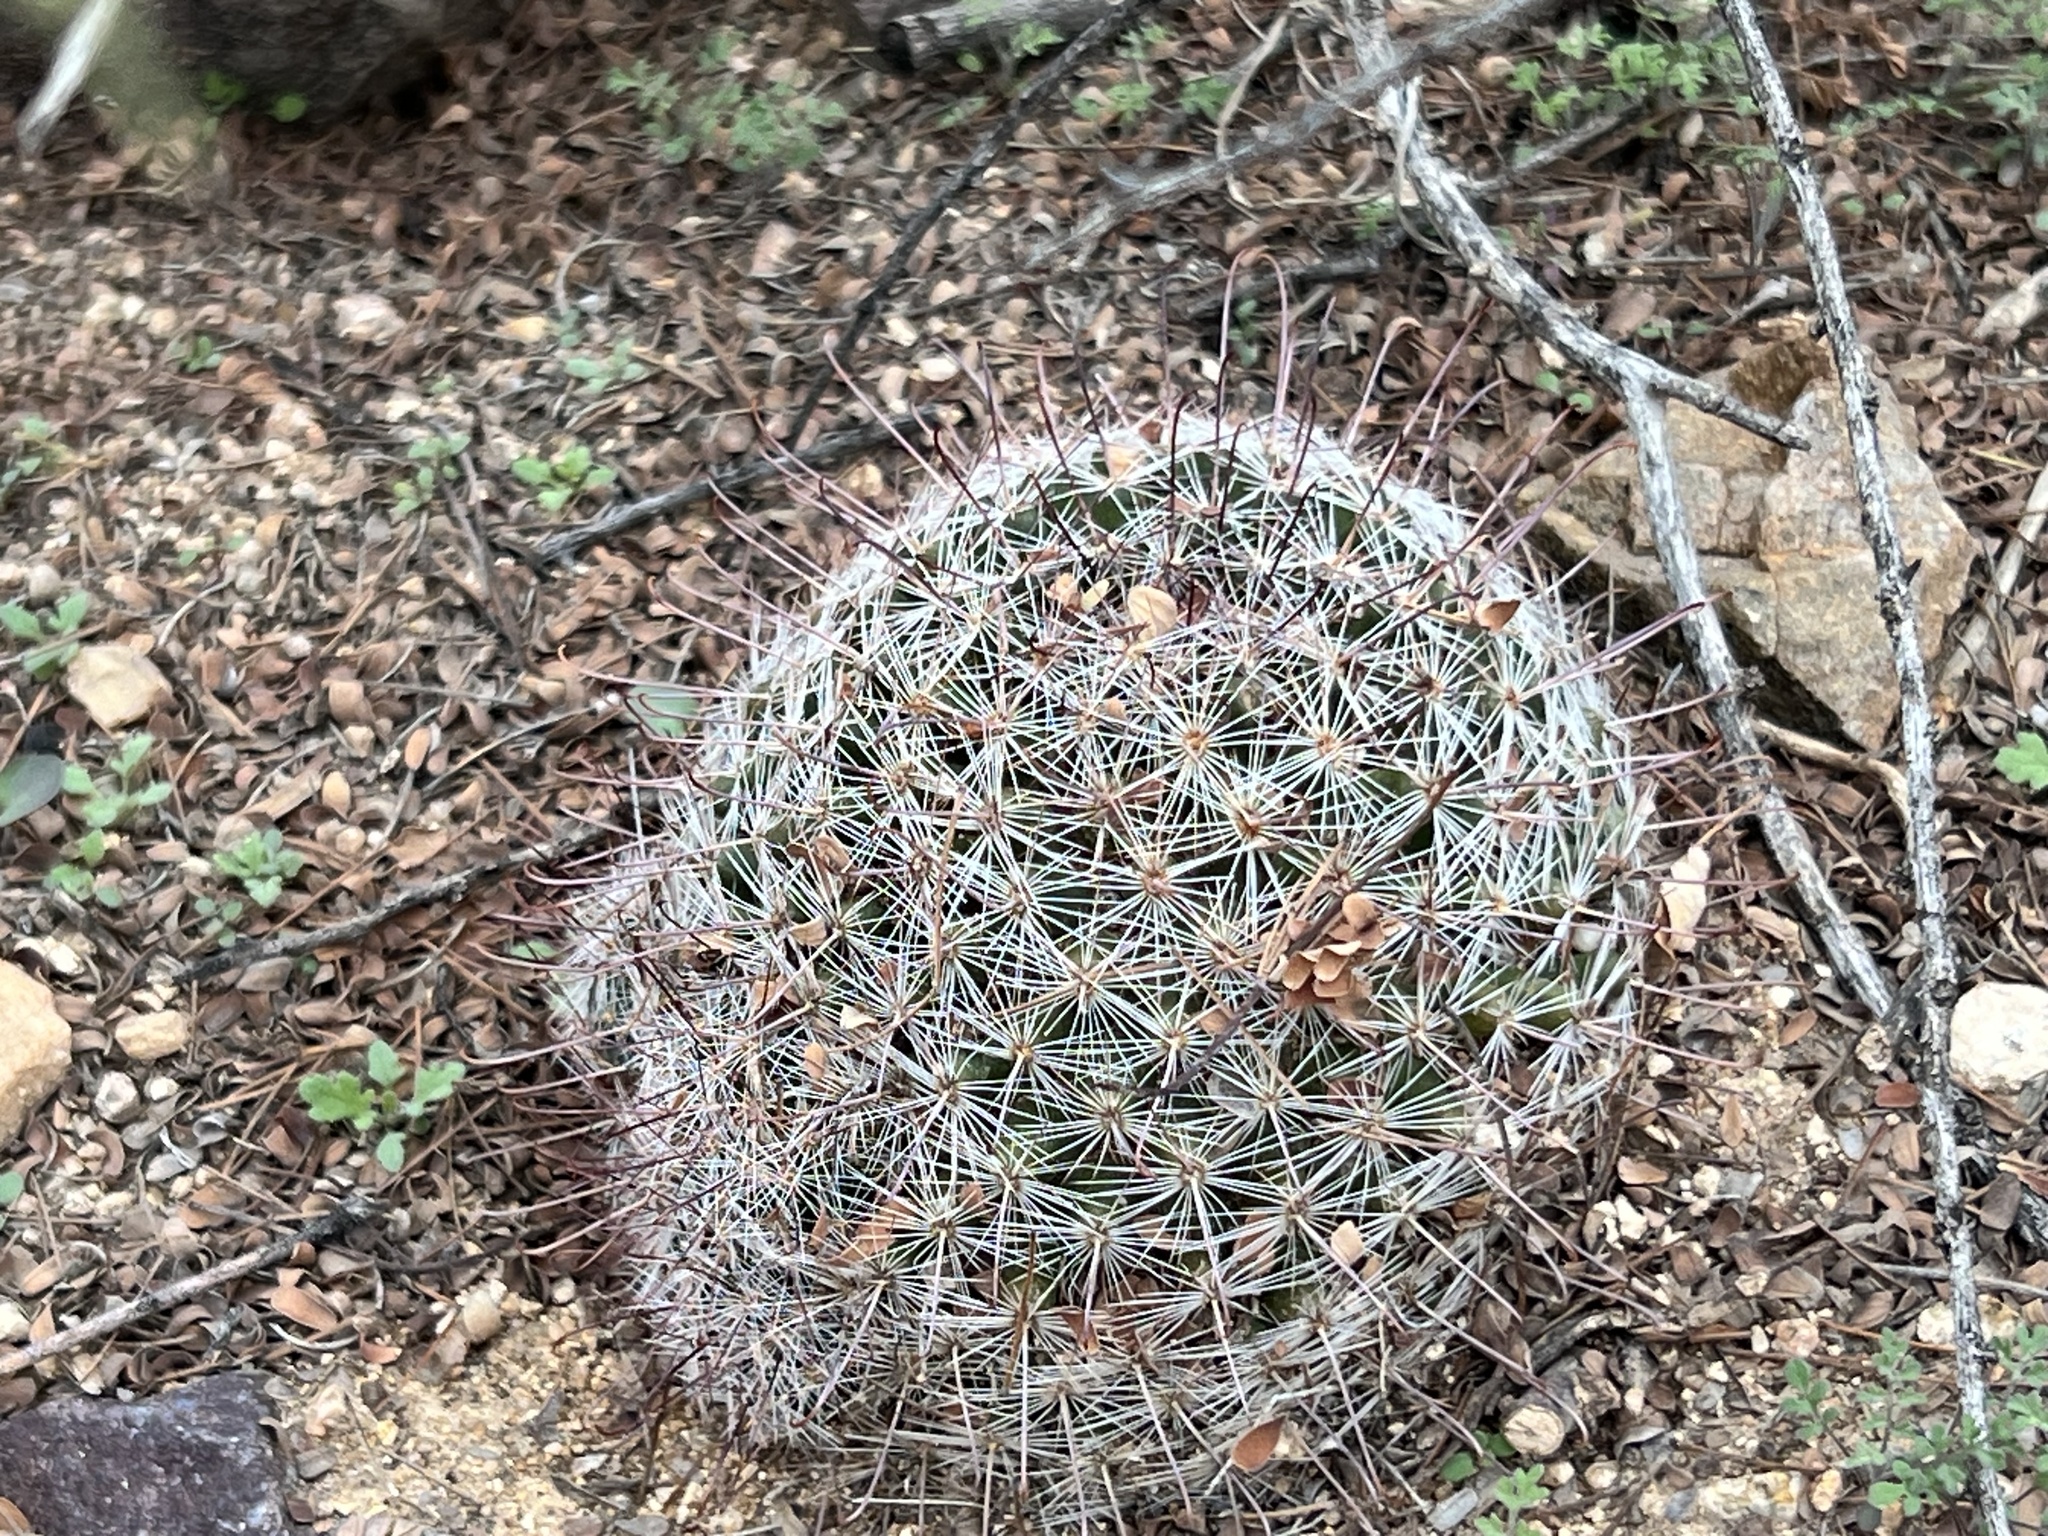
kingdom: Plantae
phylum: Tracheophyta
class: Magnoliopsida
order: Caryophyllales
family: Cactaceae
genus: Cochemiea
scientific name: Cochemiea grahamii
